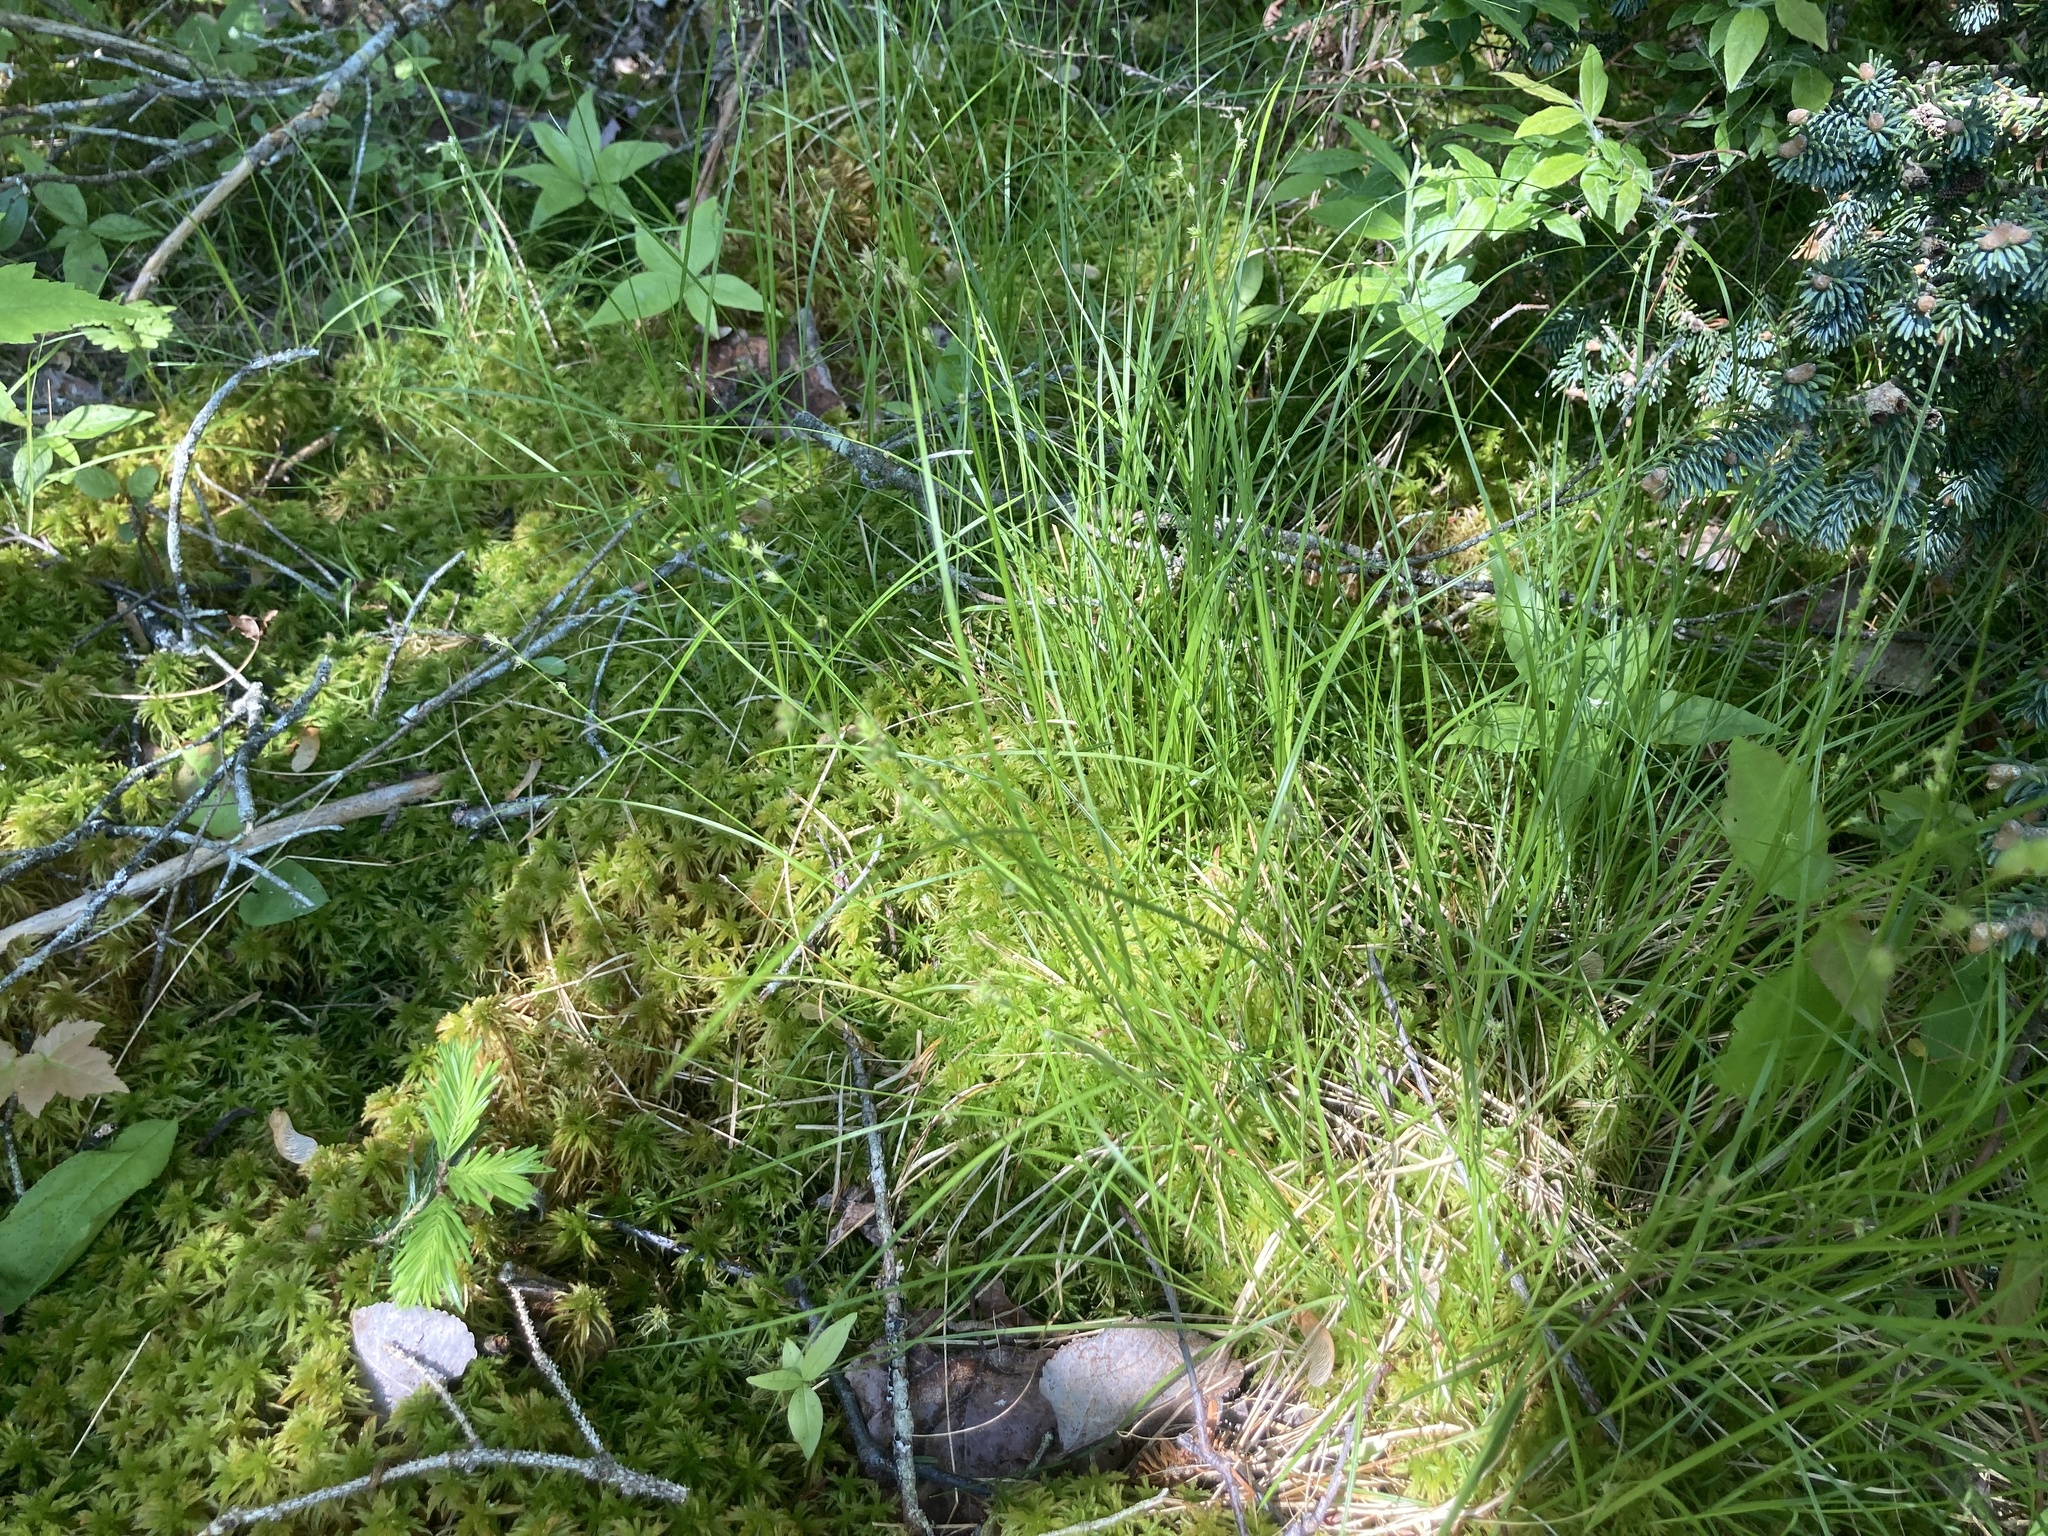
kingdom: Plantae
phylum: Tracheophyta
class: Liliopsida
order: Poales
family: Cyperaceae
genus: Carex
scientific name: Carex brunnescens
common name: Brown sedge
